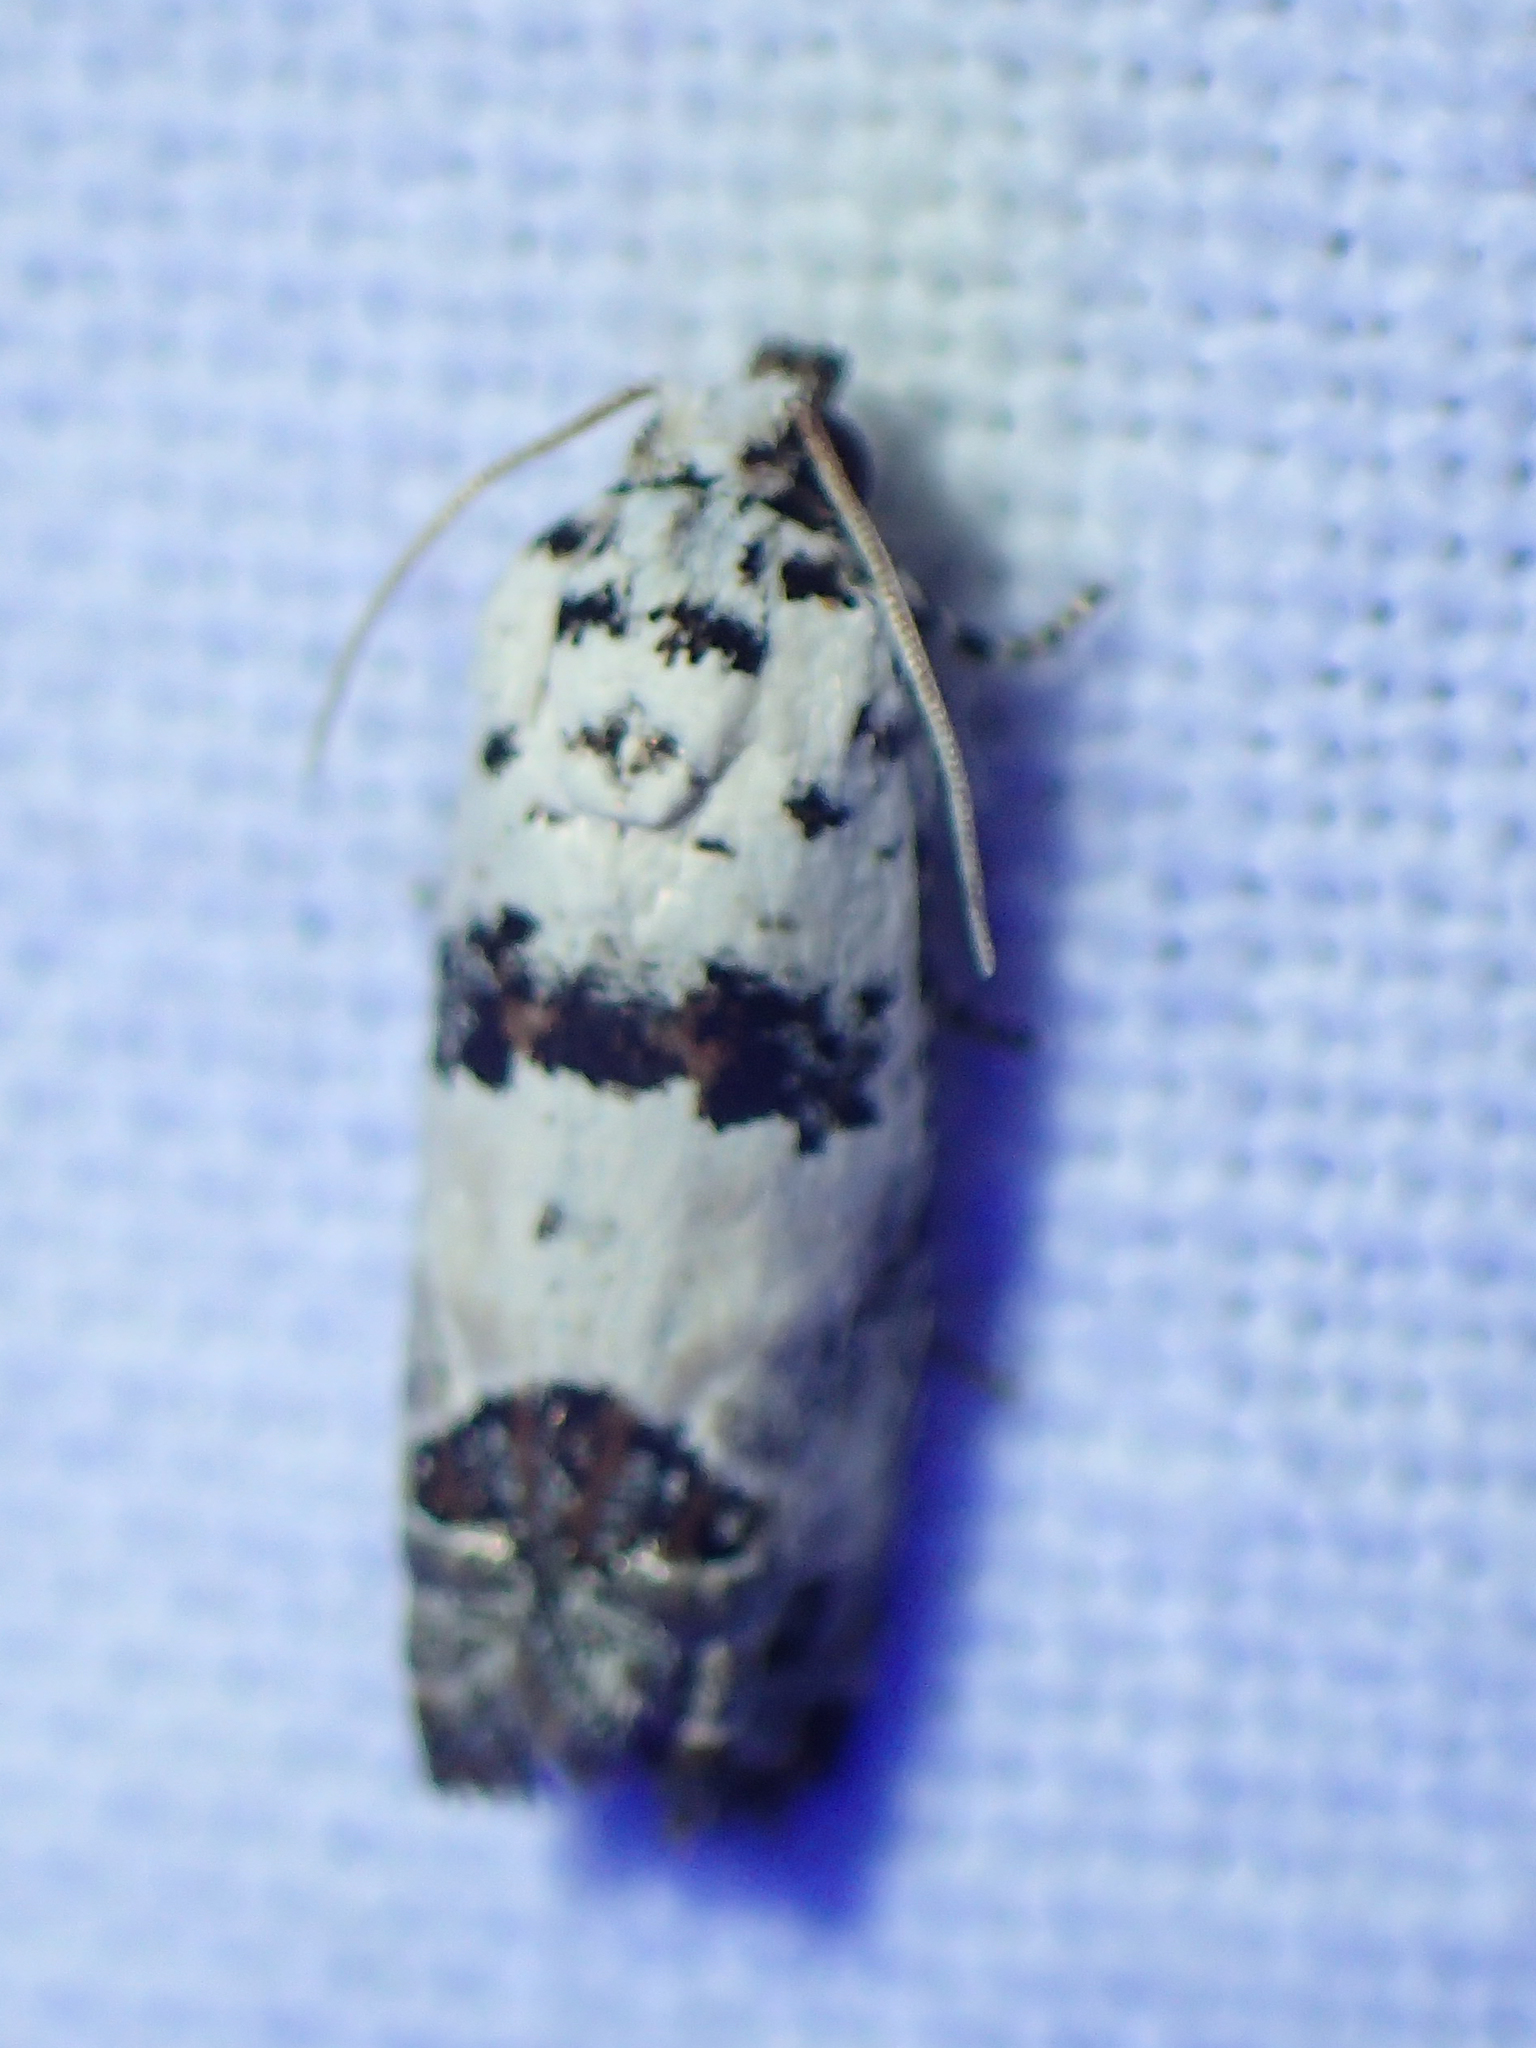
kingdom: Animalia
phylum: Arthropoda
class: Insecta
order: Lepidoptera
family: Tortricidae
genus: Epinotia
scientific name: Epinotia dalmatana
